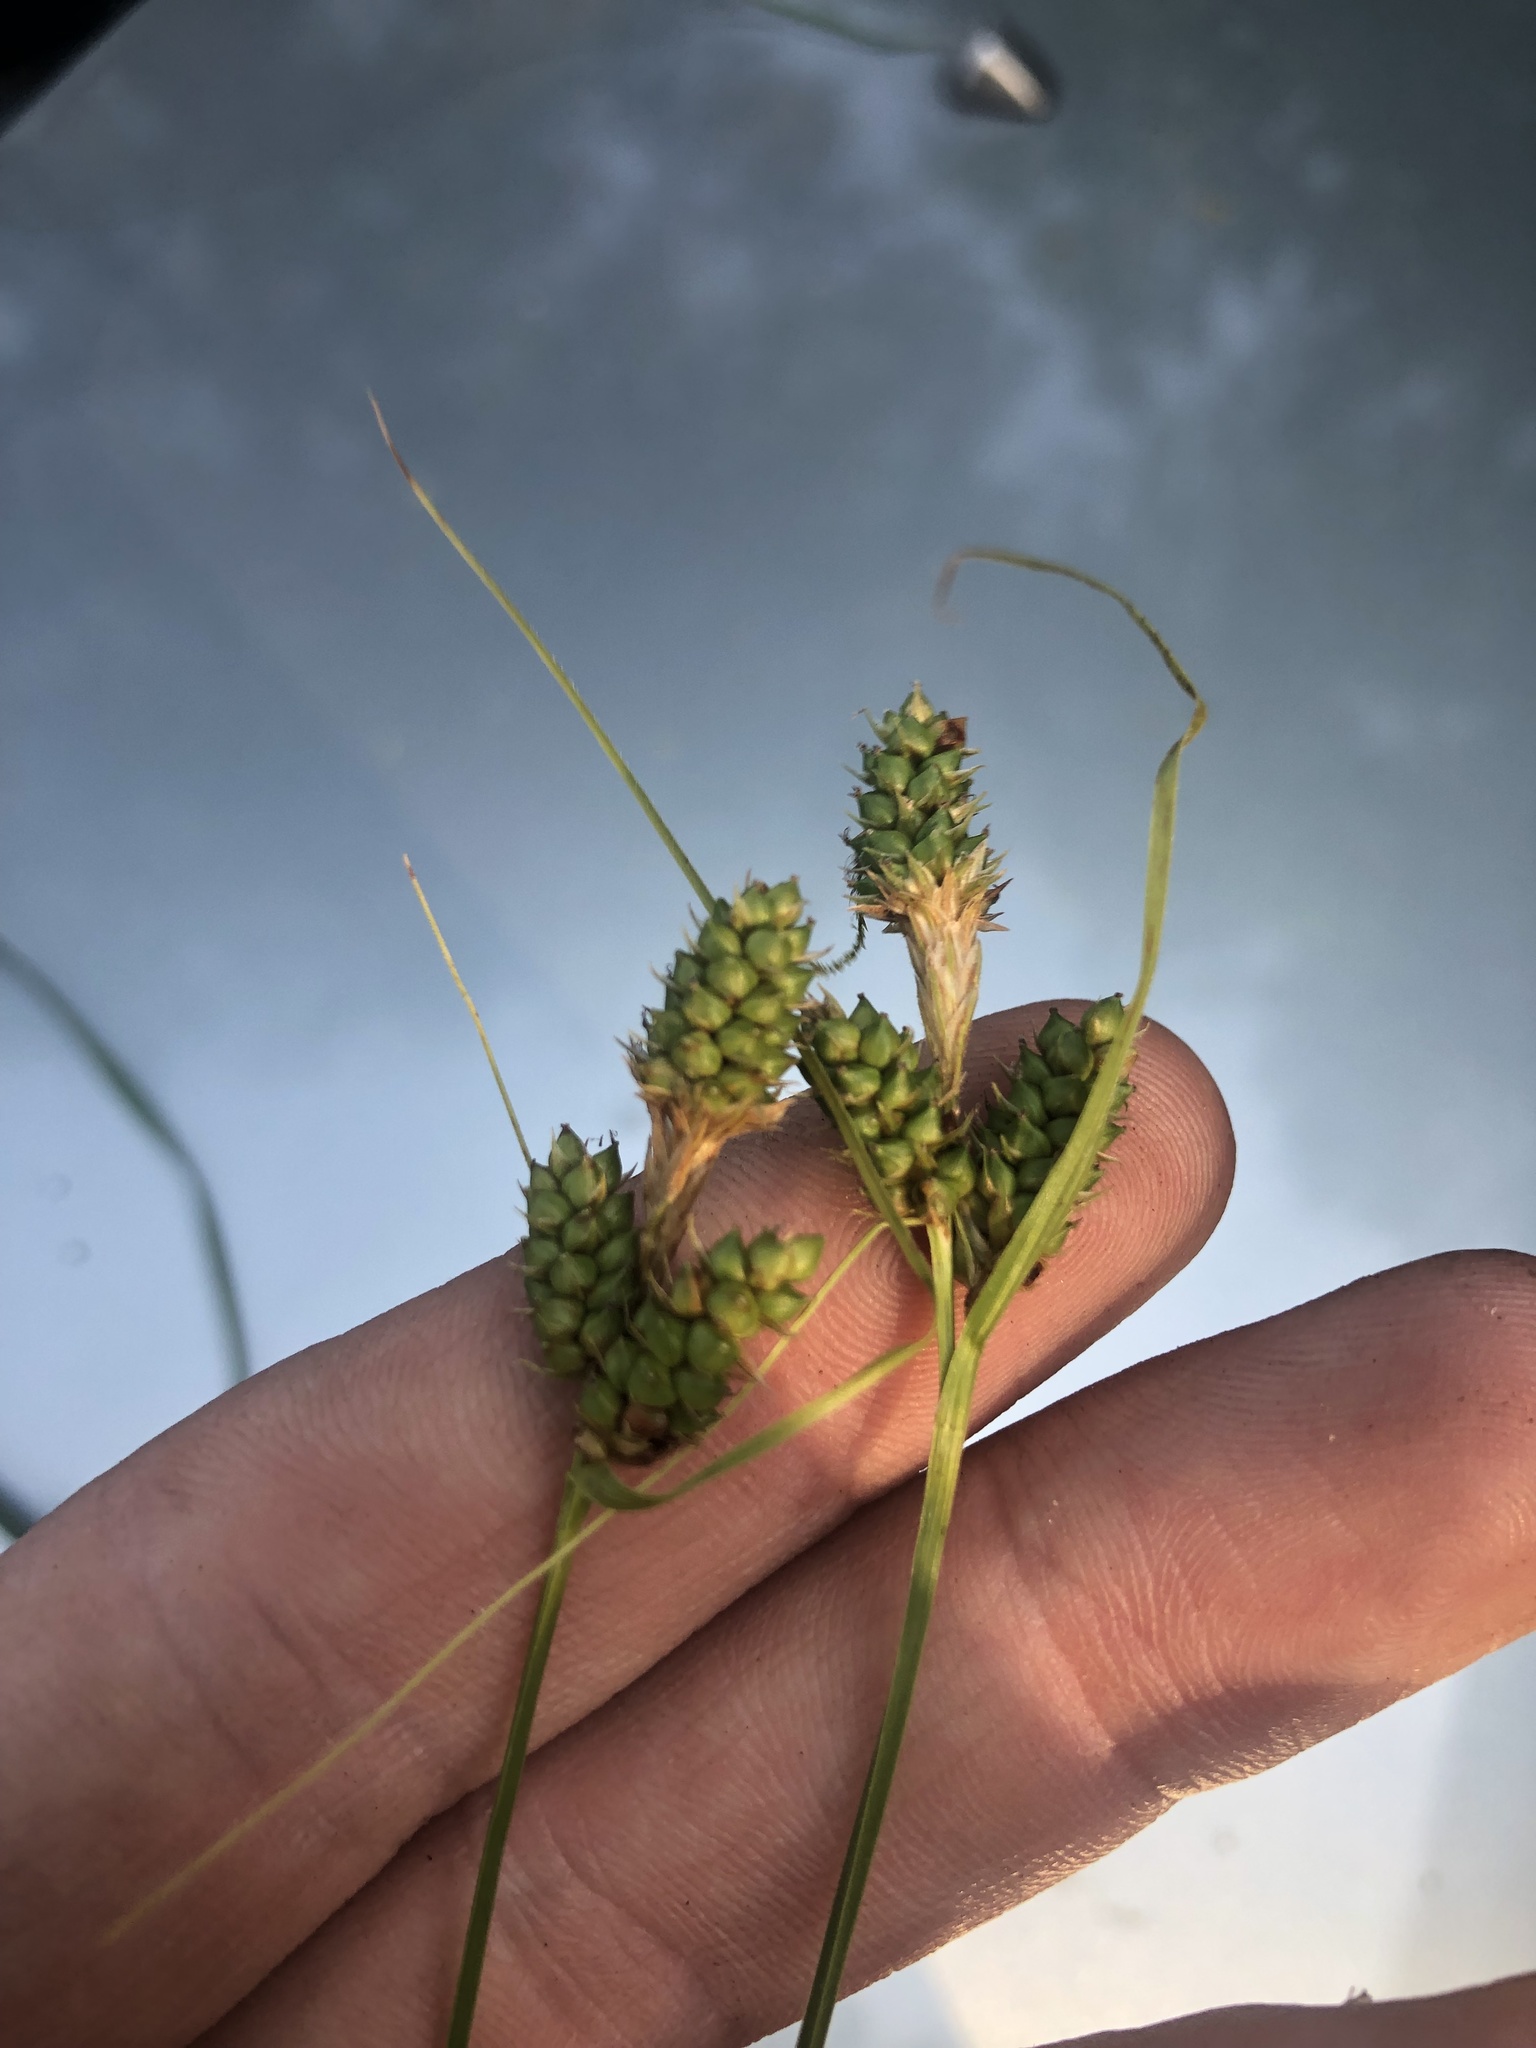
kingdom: Plantae
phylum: Tracheophyta
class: Liliopsida
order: Poales
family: Cyperaceae
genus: Carex
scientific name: Carex bushii
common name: Bush's sedge
